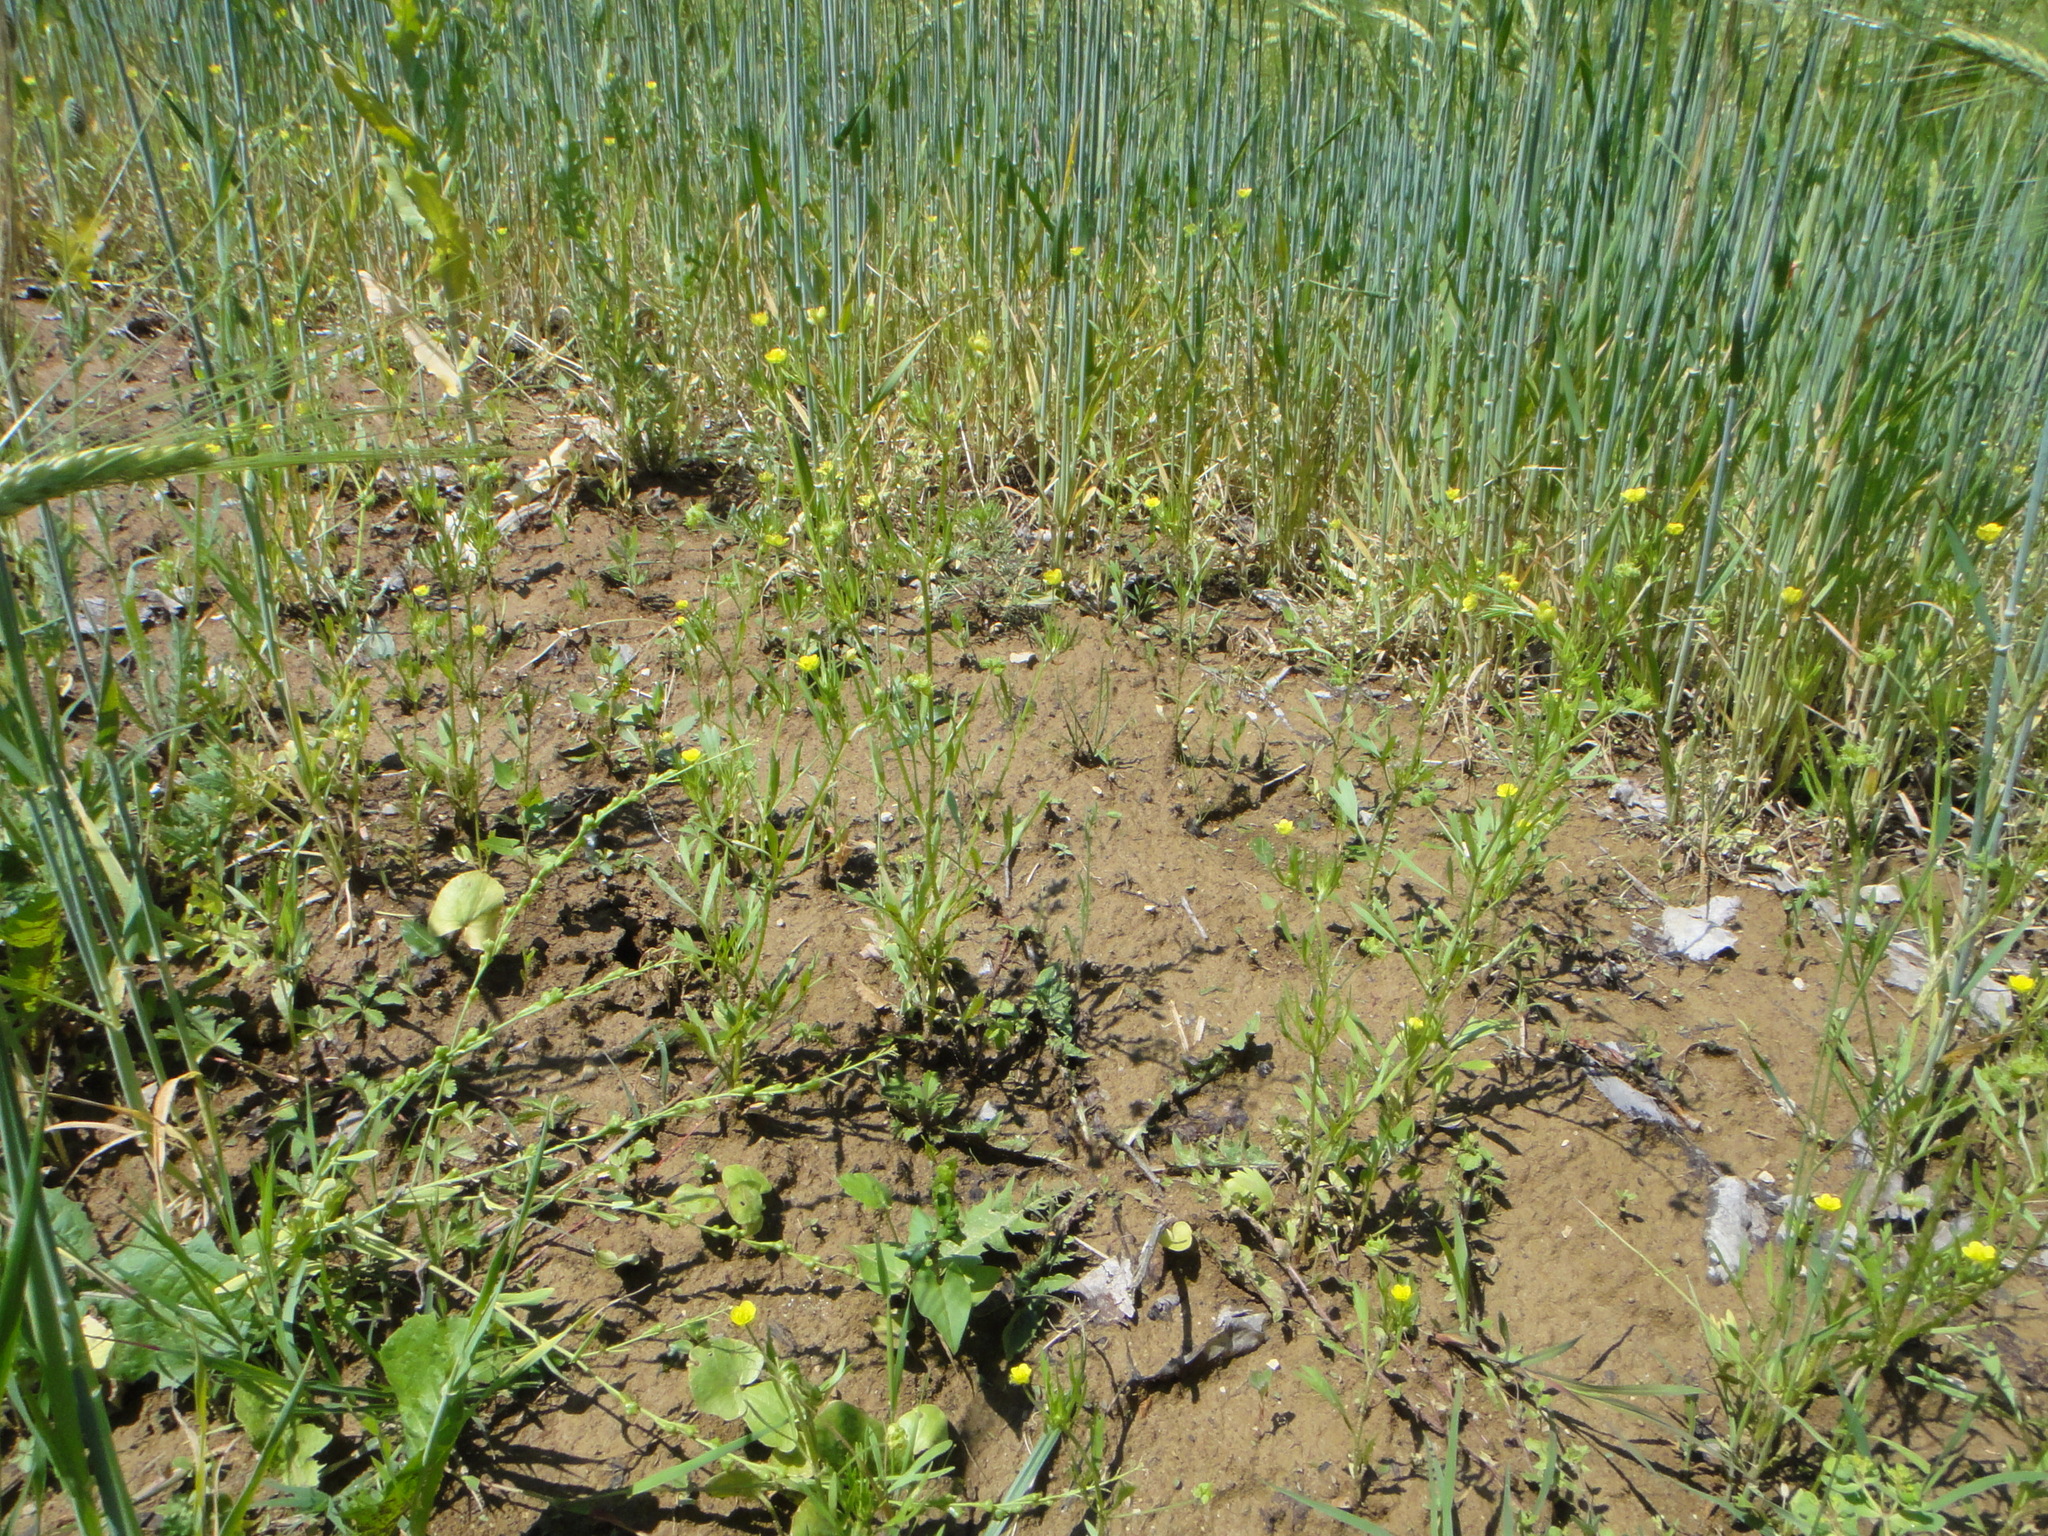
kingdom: Plantae
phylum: Tracheophyta
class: Magnoliopsida
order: Ranunculales
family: Ranunculaceae
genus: Ranunculus
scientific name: Ranunculus arvensis
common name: Corn buttercup
